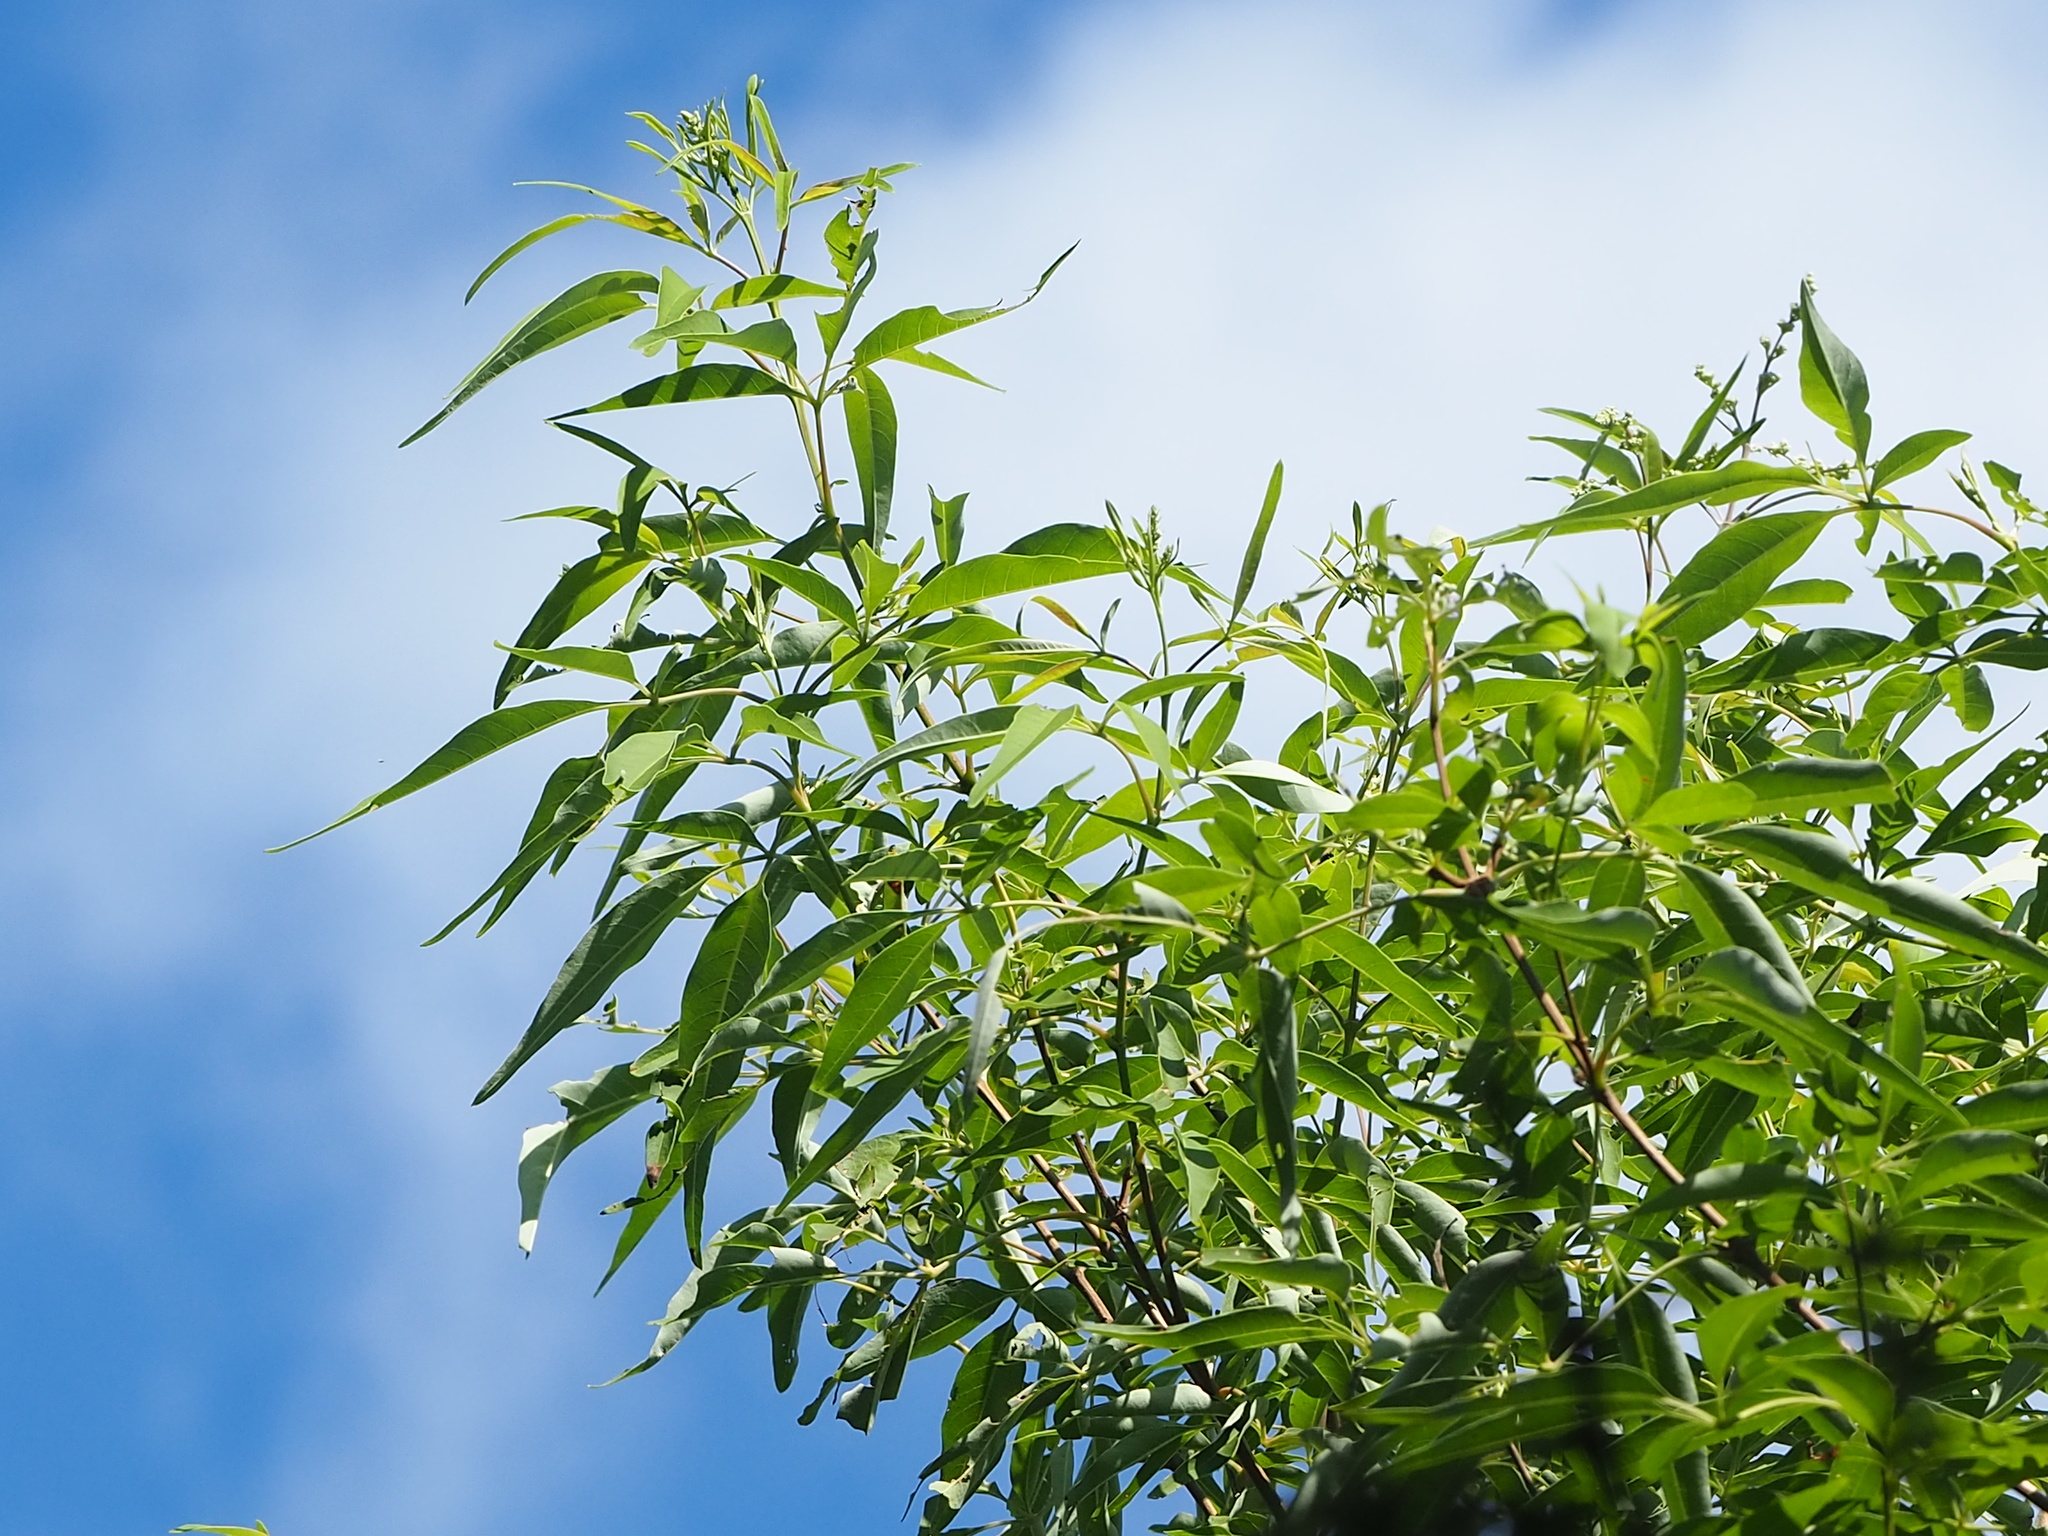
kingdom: Plantae
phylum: Tracheophyta
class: Magnoliopsida
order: Lamiales
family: Lamiaceae
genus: Vitex
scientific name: Vitex negundo
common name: Chinese chastetree
